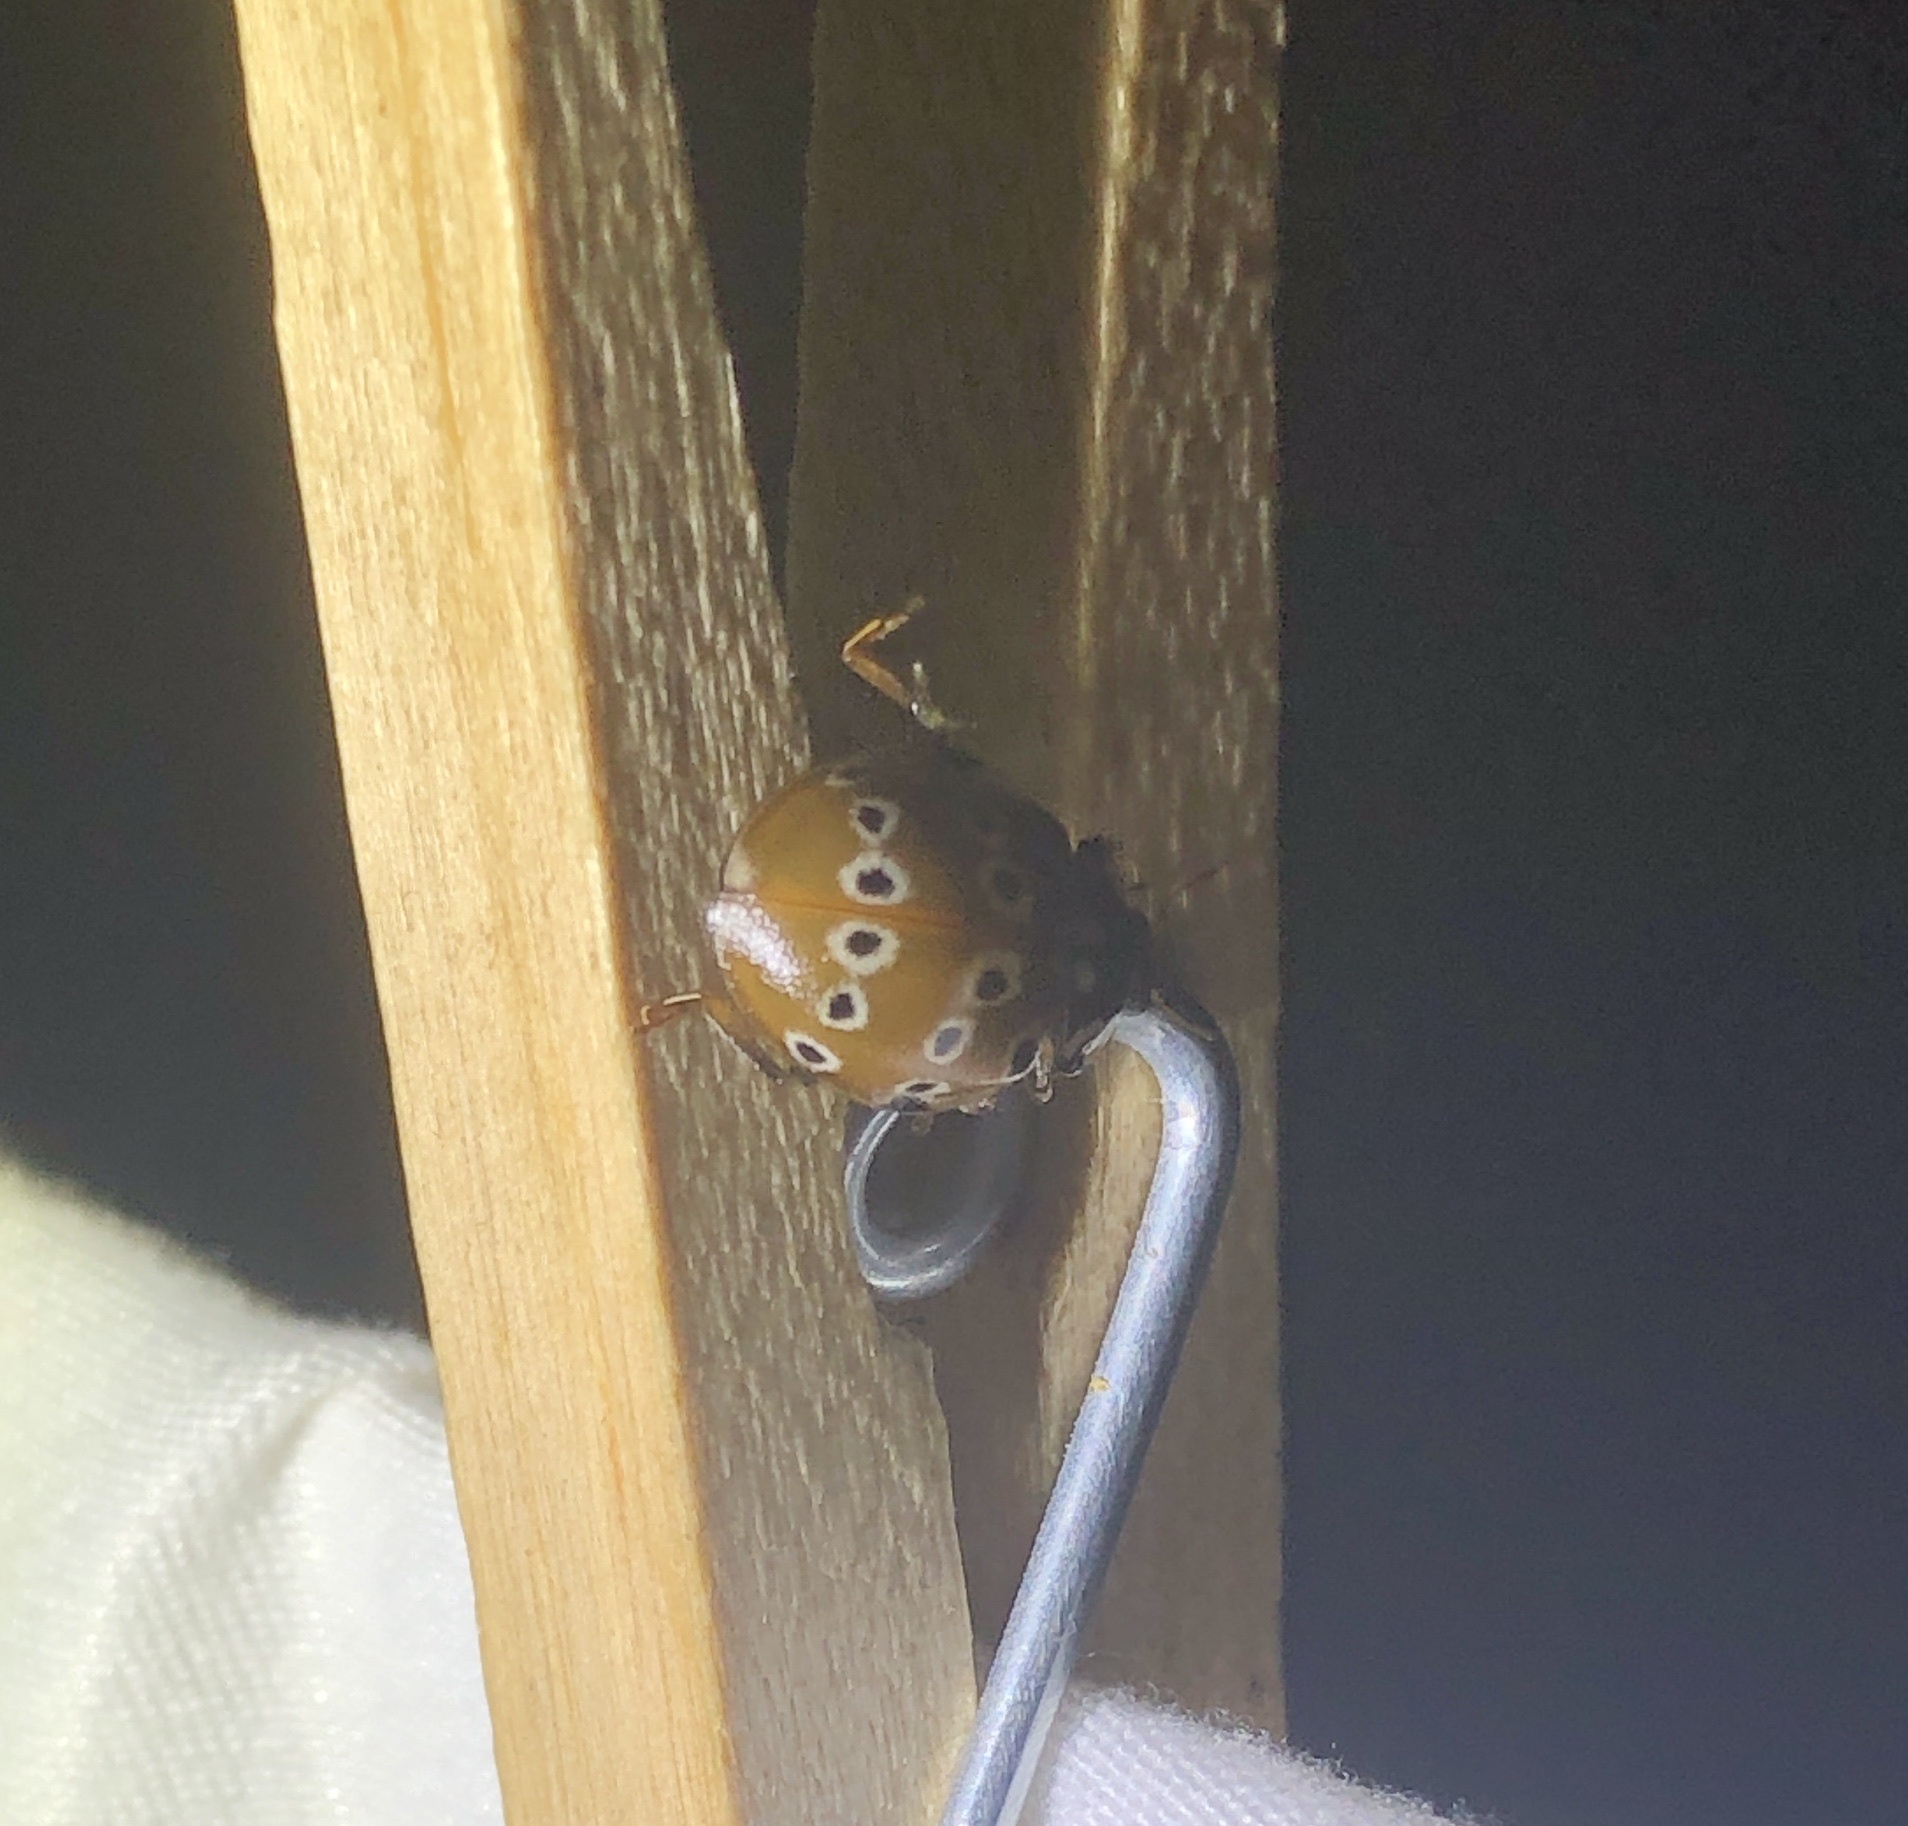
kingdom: Animalia
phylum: Arthropoda
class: Insecta
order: Coleoptera
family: Coccinellidae
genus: Anatis
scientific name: Anatis mali
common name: Eye-spotted lady beetle
